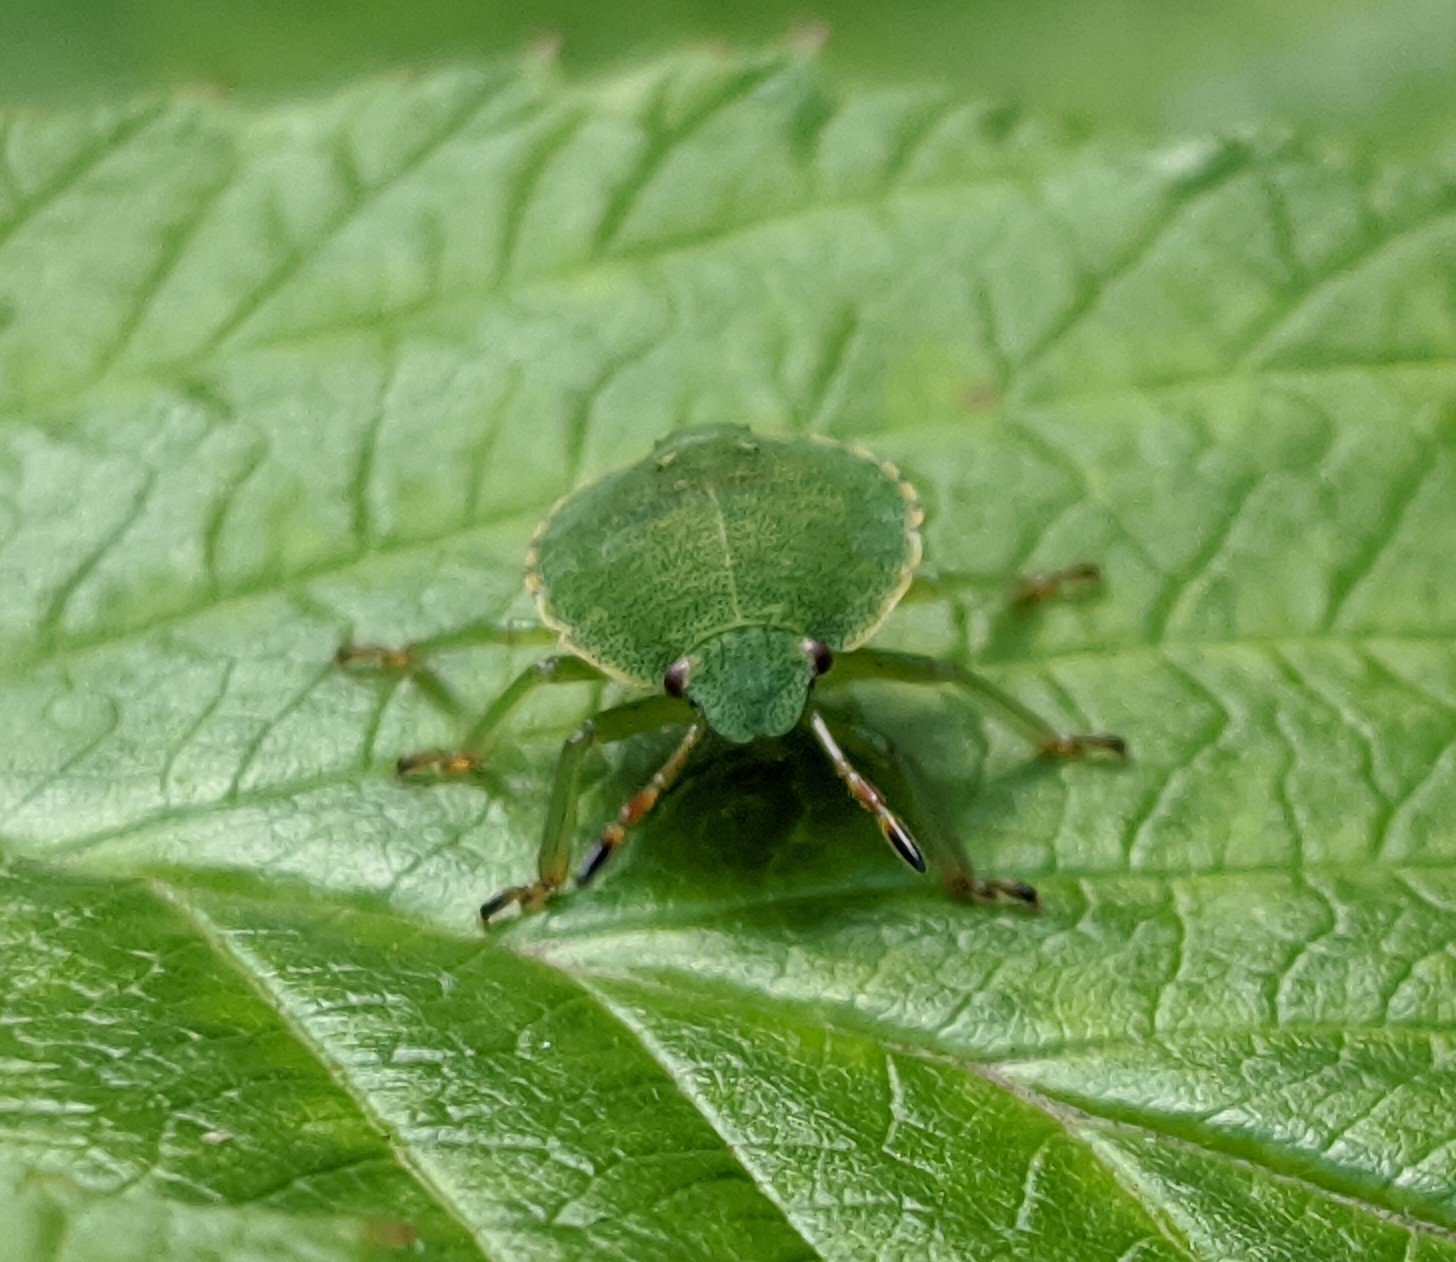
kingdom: Animalia
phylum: Arthropoda
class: Insecta
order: Hemiptera
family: Pentatomidae
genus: Palomena
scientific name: Palomena prasina
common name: Green shieldbug
